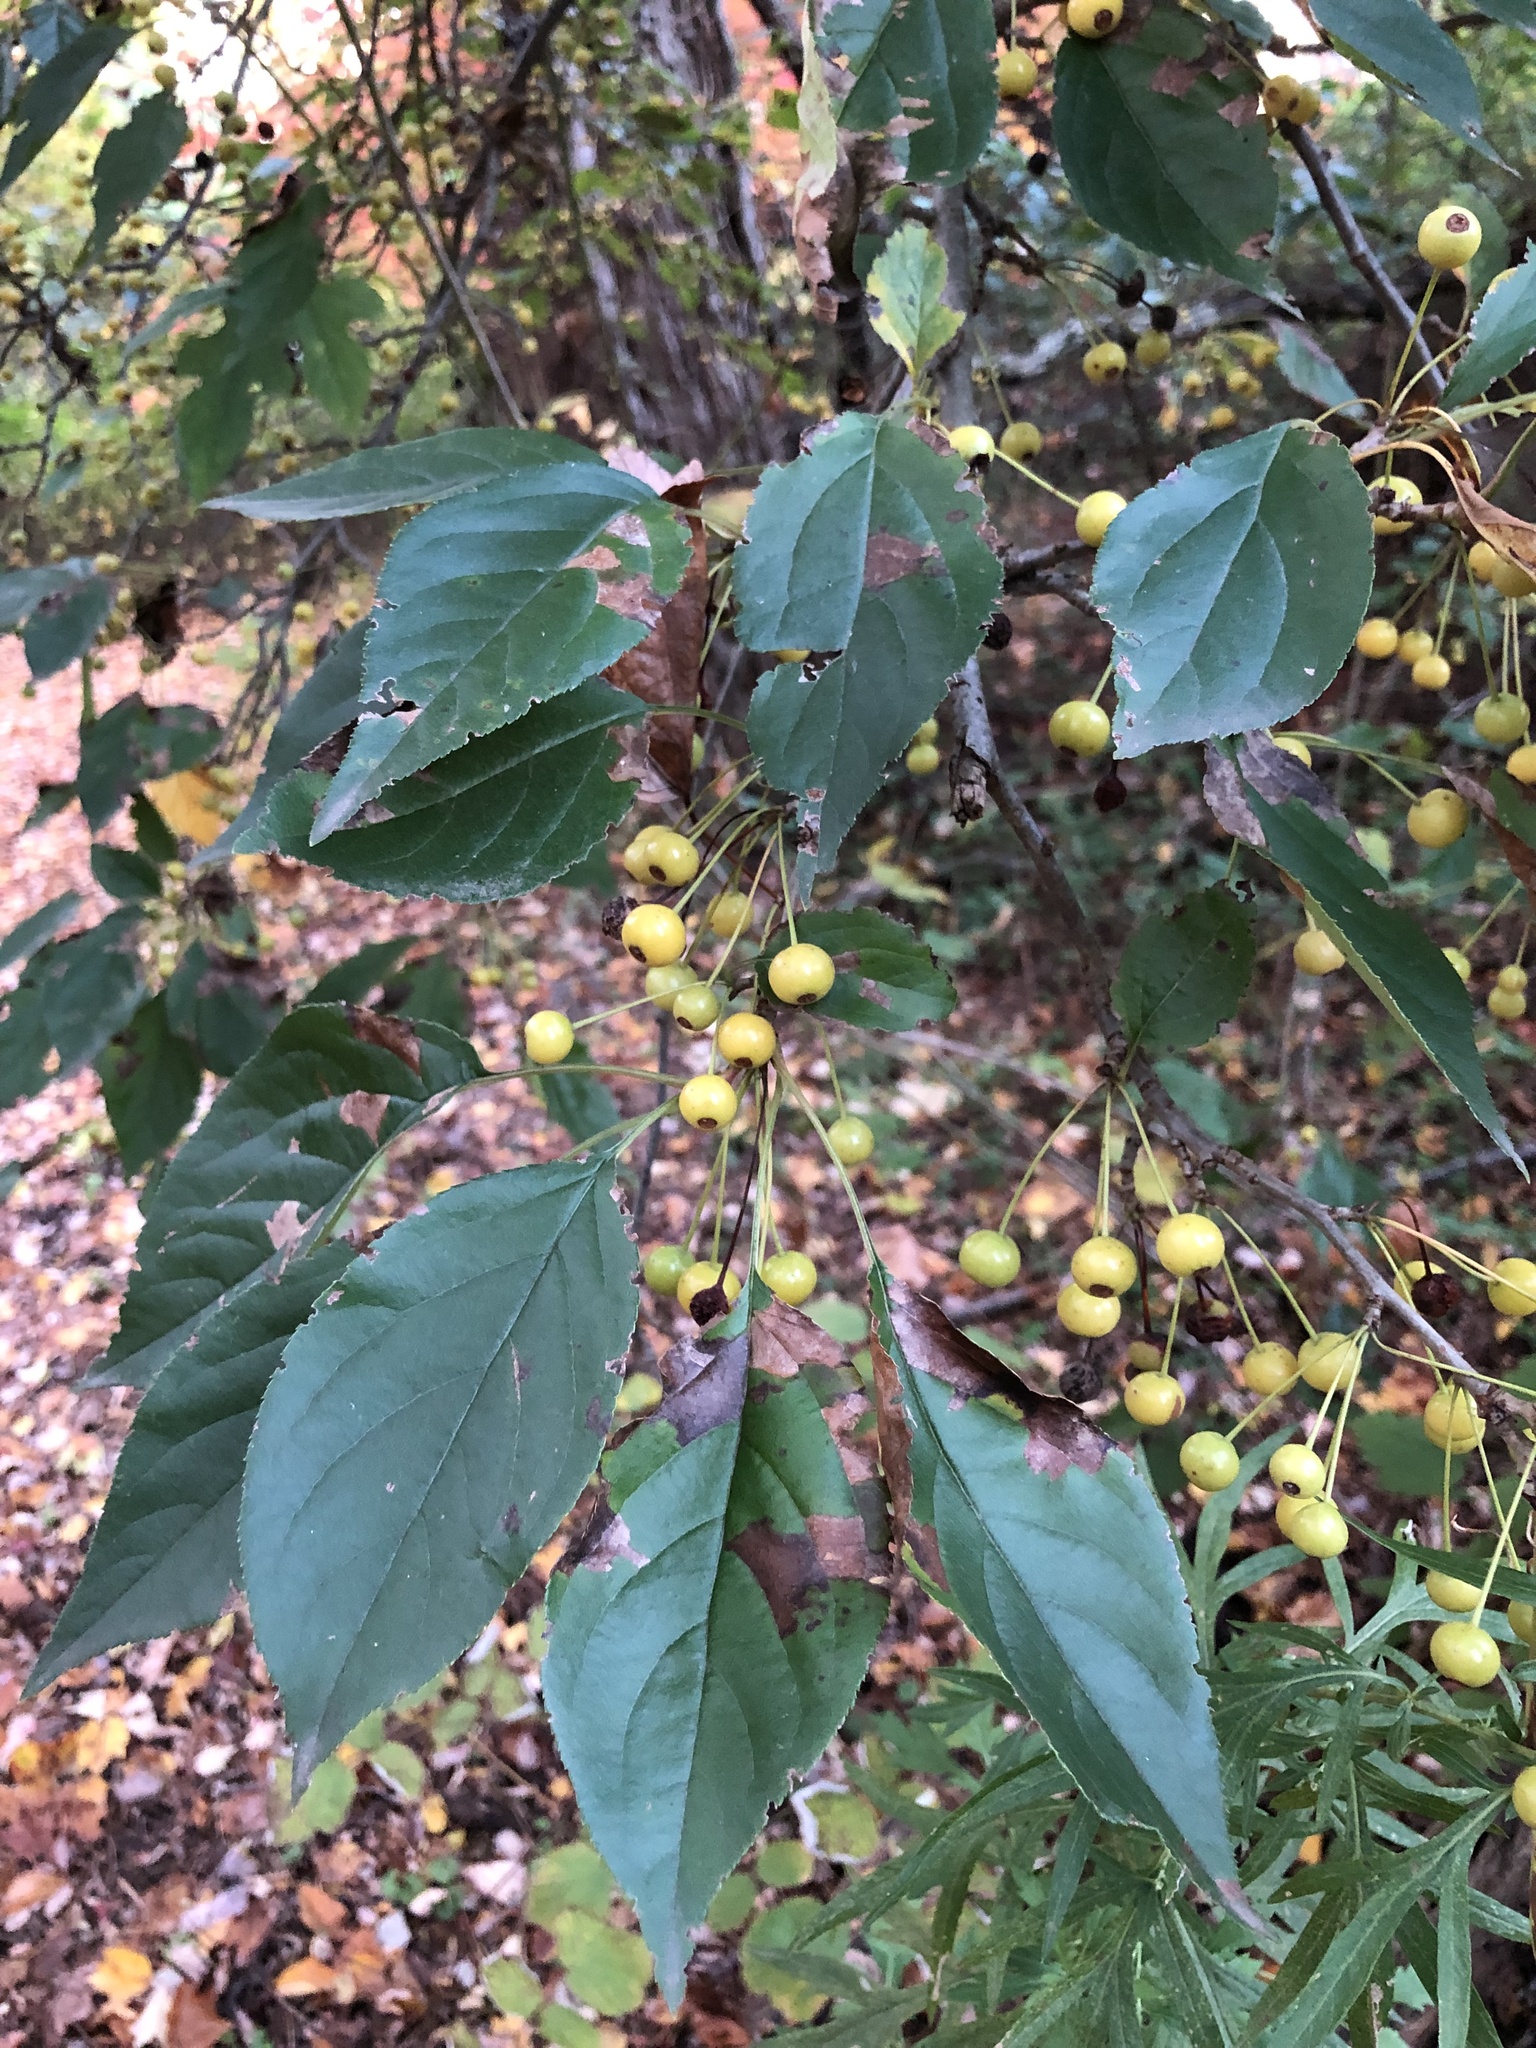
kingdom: Plantae
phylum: Tracheophyta
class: Magnoliopsida
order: Rosales
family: Rosaceae
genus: Malus
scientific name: Malus baccata
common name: Siberian crab
